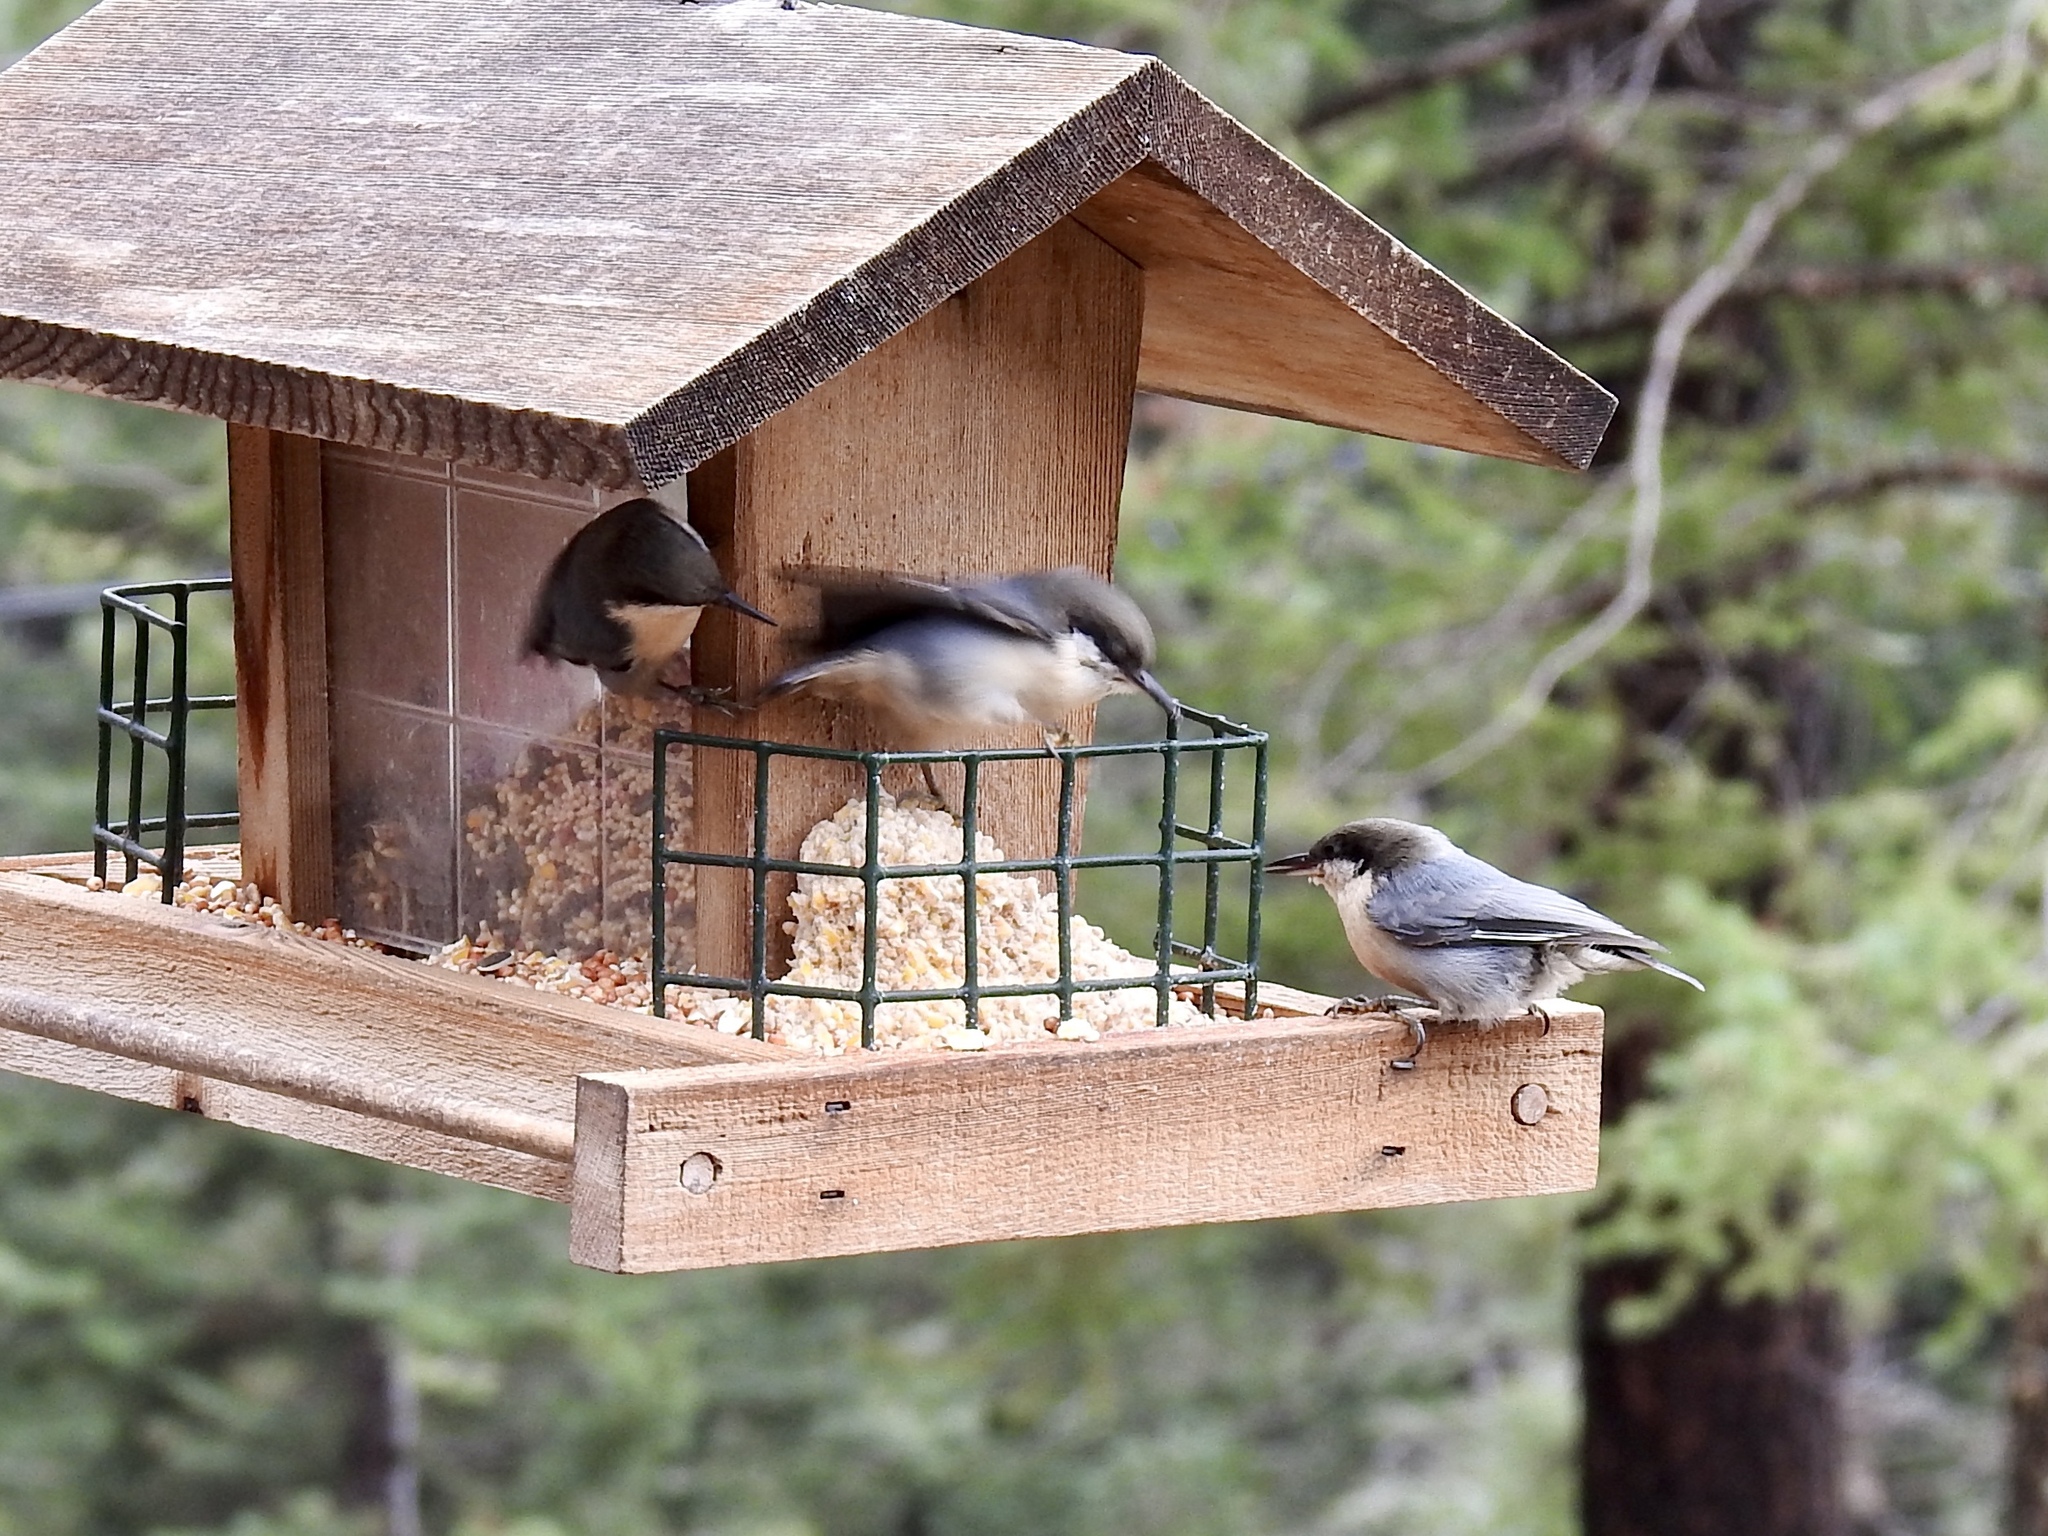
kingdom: Animalia
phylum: Chordata
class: Aves
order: Passeriformes
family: Sittidae
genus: Sitta
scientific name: Sitta pygmaea
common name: Pygmy nuthatch
